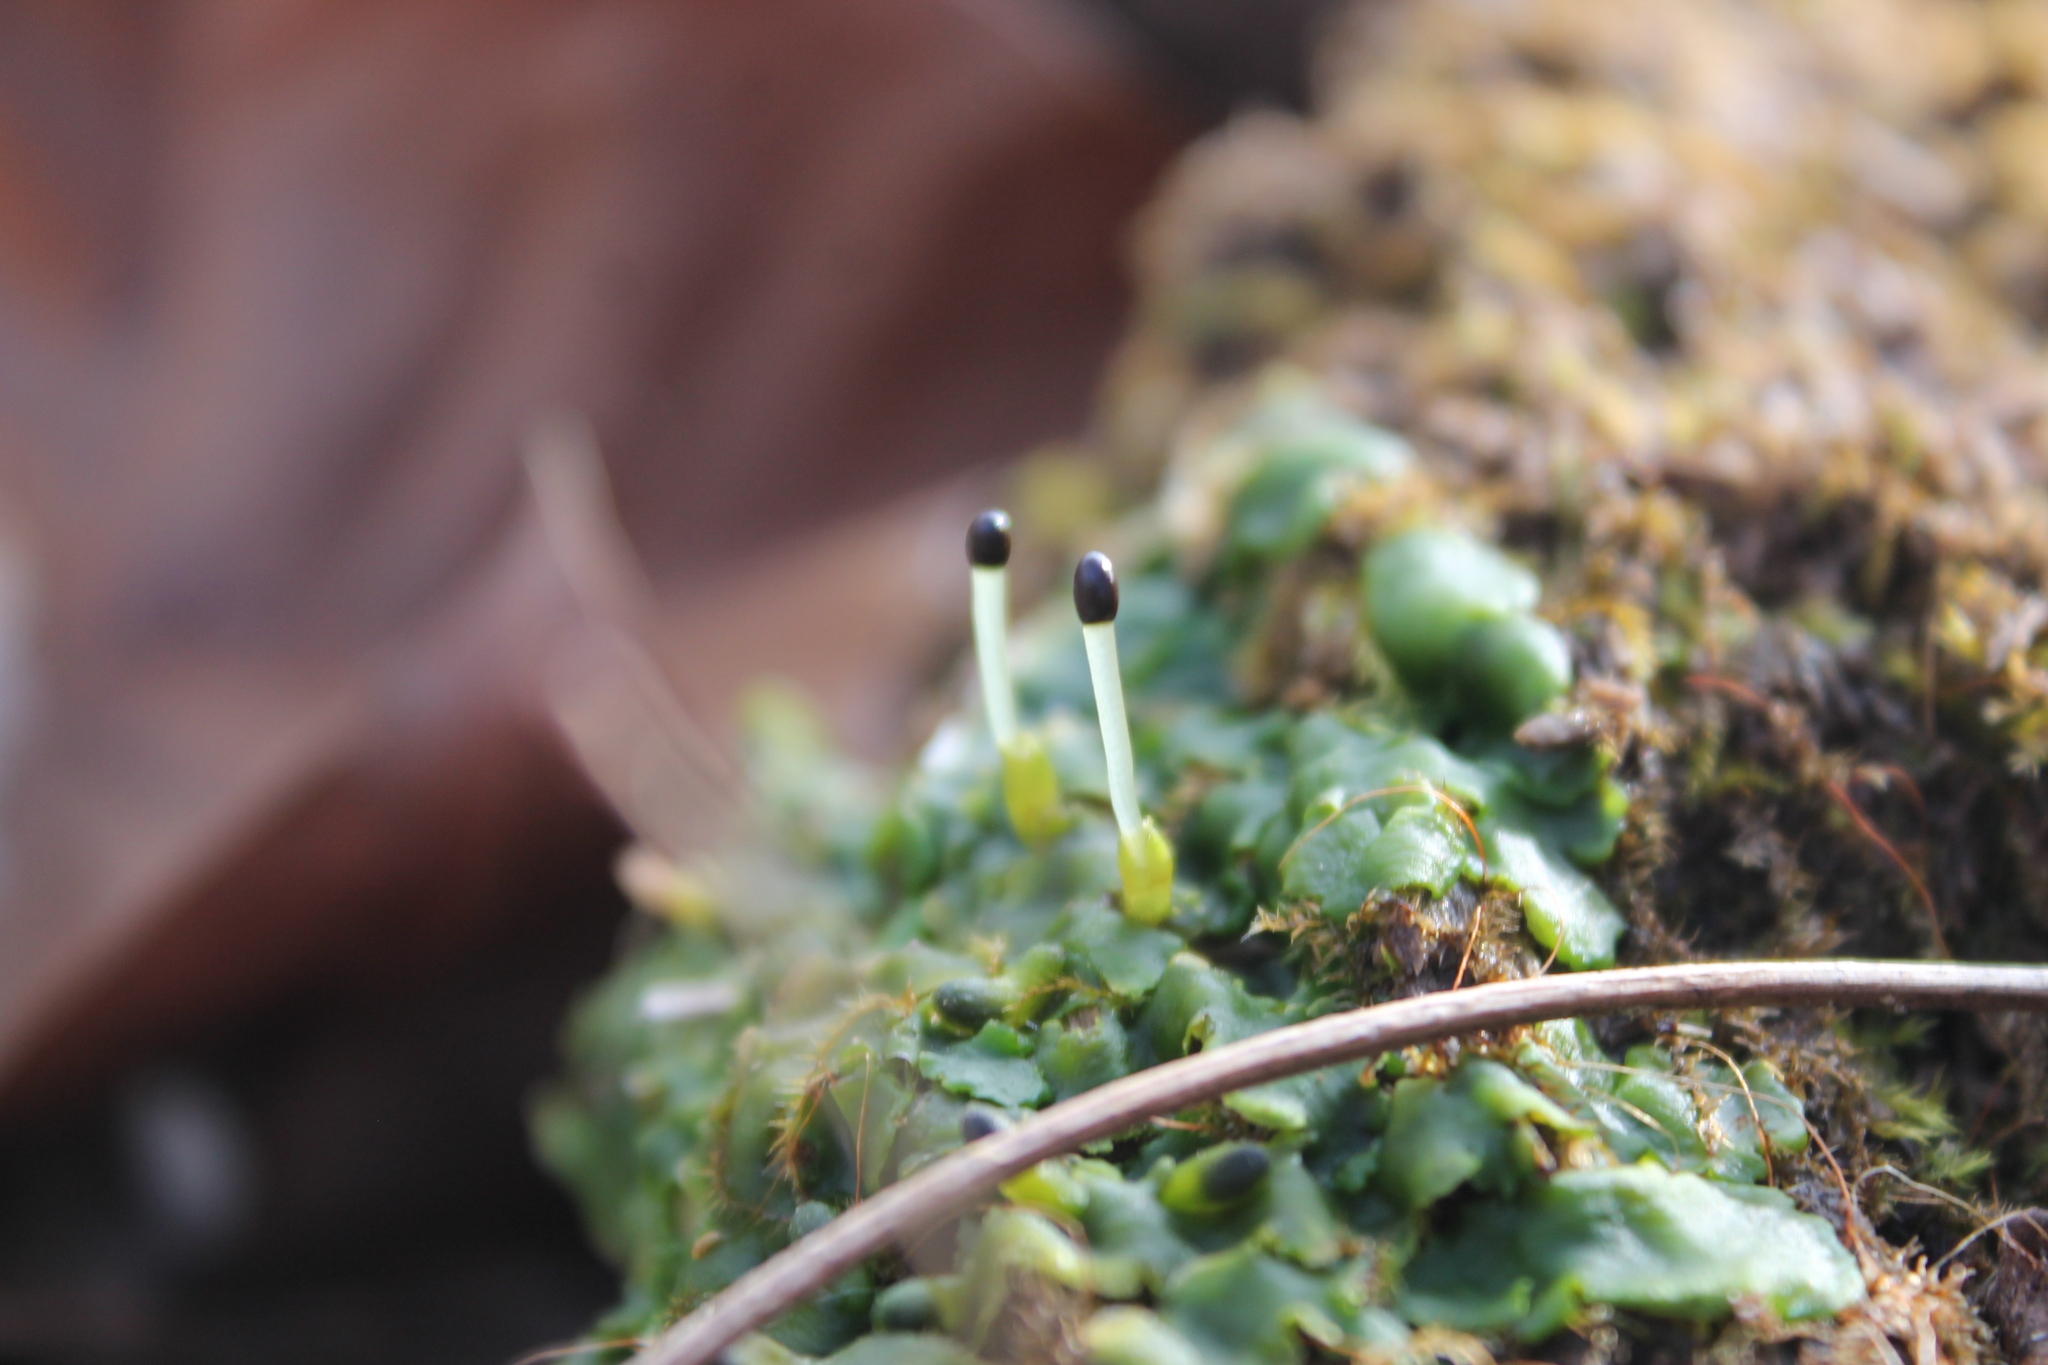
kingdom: Plantae
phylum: Marchantiophyta
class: Jungermanniopsida
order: Metzgeriales
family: Aneuraceae
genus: Aneura
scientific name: Aneura pinguis
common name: Common greasewort
